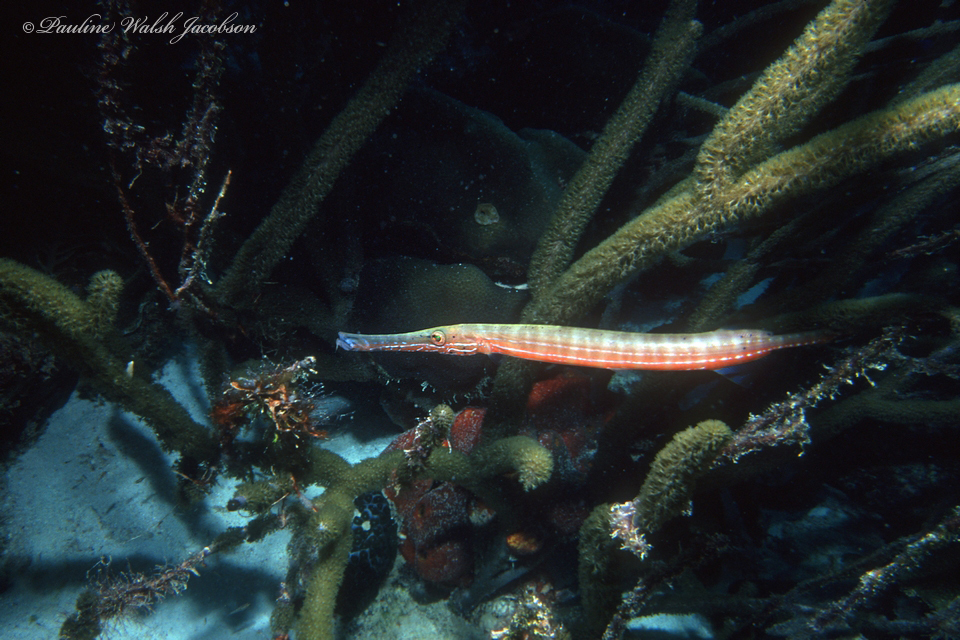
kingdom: Animalia
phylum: Chordata
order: Syngnathiformes
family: Aulostomidae
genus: Aulostomus
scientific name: Aulostomus maculatus
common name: West atlantic trumpetfish
